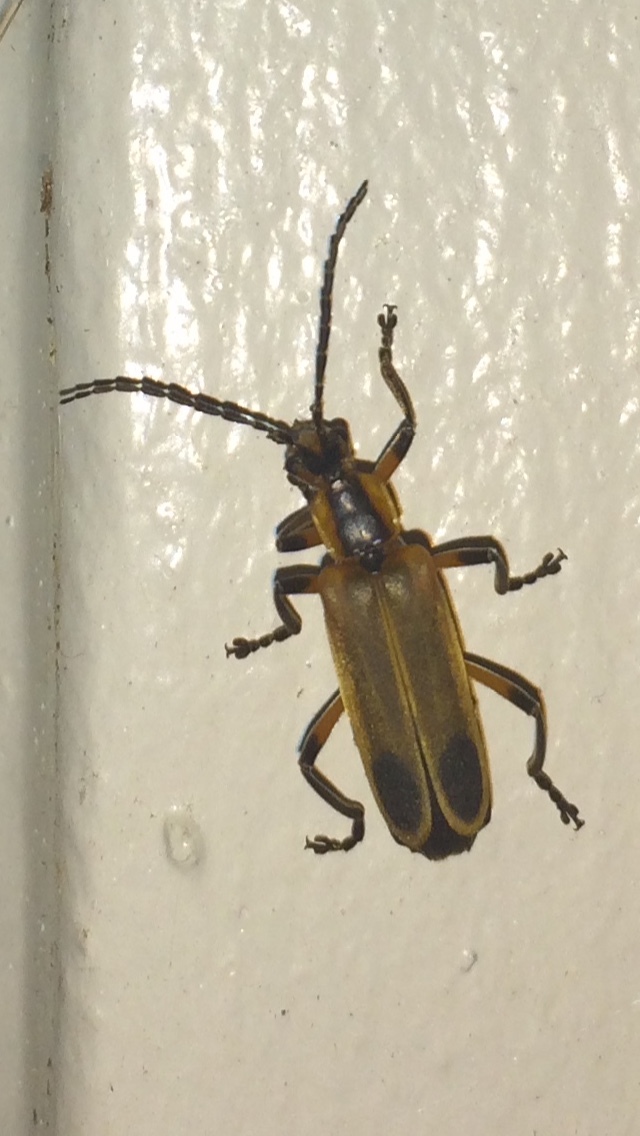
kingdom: Animalia
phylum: Arthropoda
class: Insecta
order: Coleoptera
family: Cantharidae
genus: Chauliognathus
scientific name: Chauliognathus marginatus
